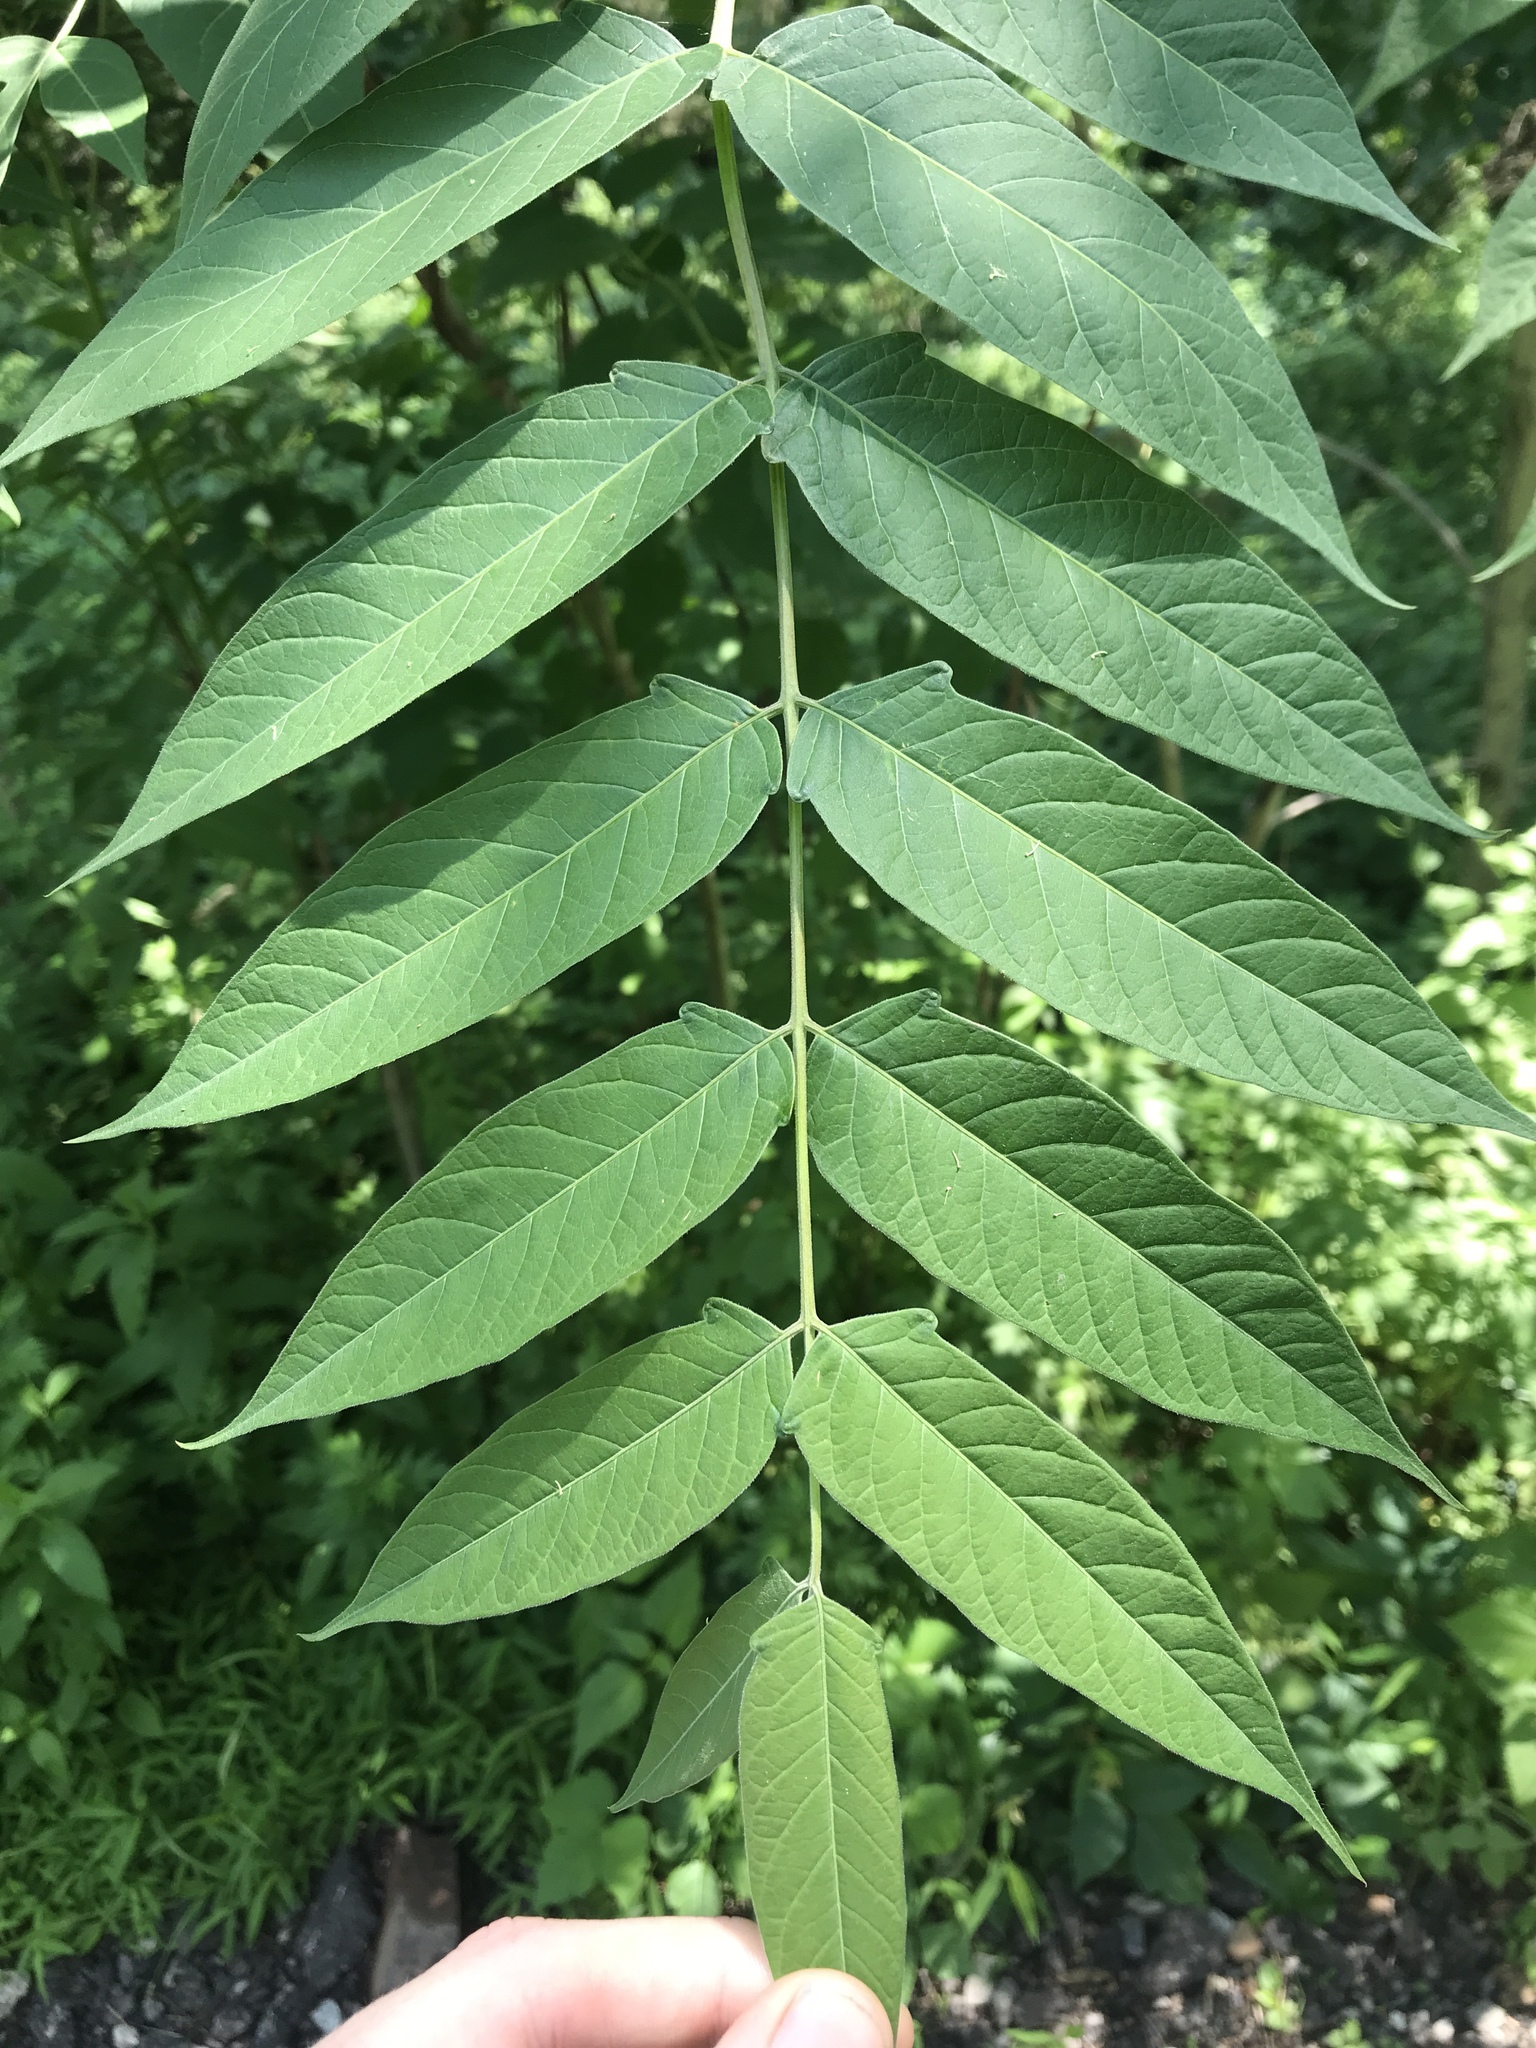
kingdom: Plantae
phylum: Tracheophyta
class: Magnoliopsida
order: Sapindales
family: Simaroubaceae
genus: Ailanthus
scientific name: Ailanthus altissima
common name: Tree-of-heaven
